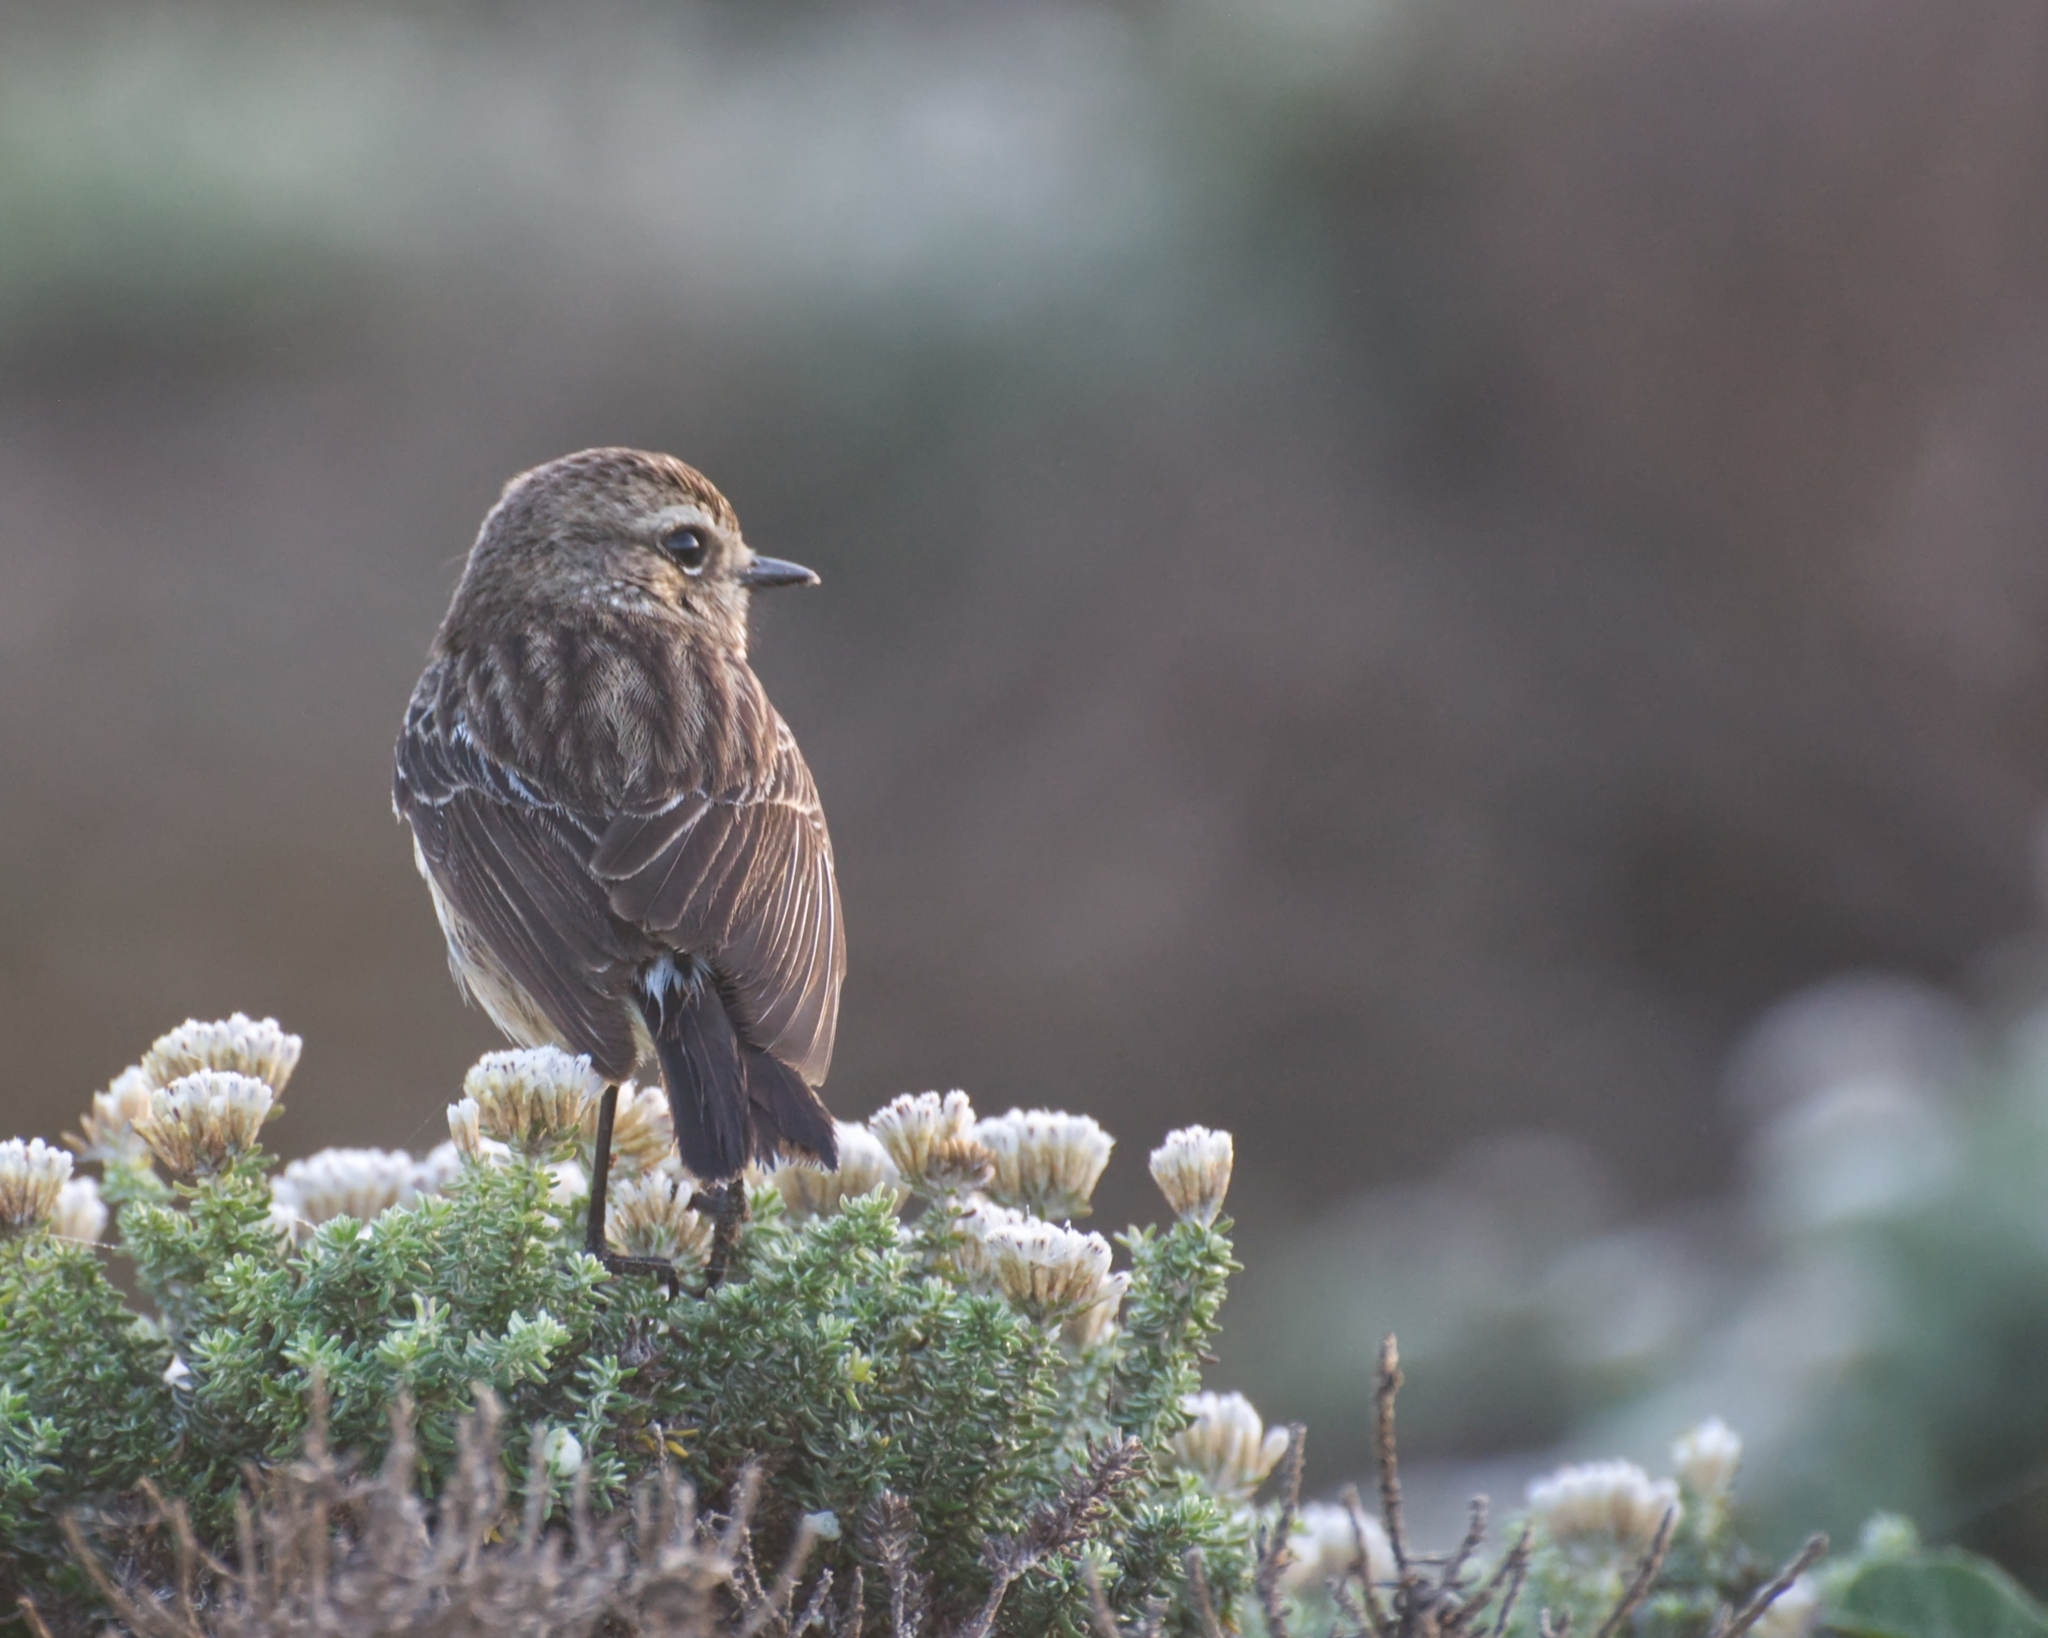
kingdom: Animalia
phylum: Chordata
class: Aves
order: Passeriformes
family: Muscicapidae
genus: Saxicola
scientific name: Saxicola torquatus
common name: African stonechat
